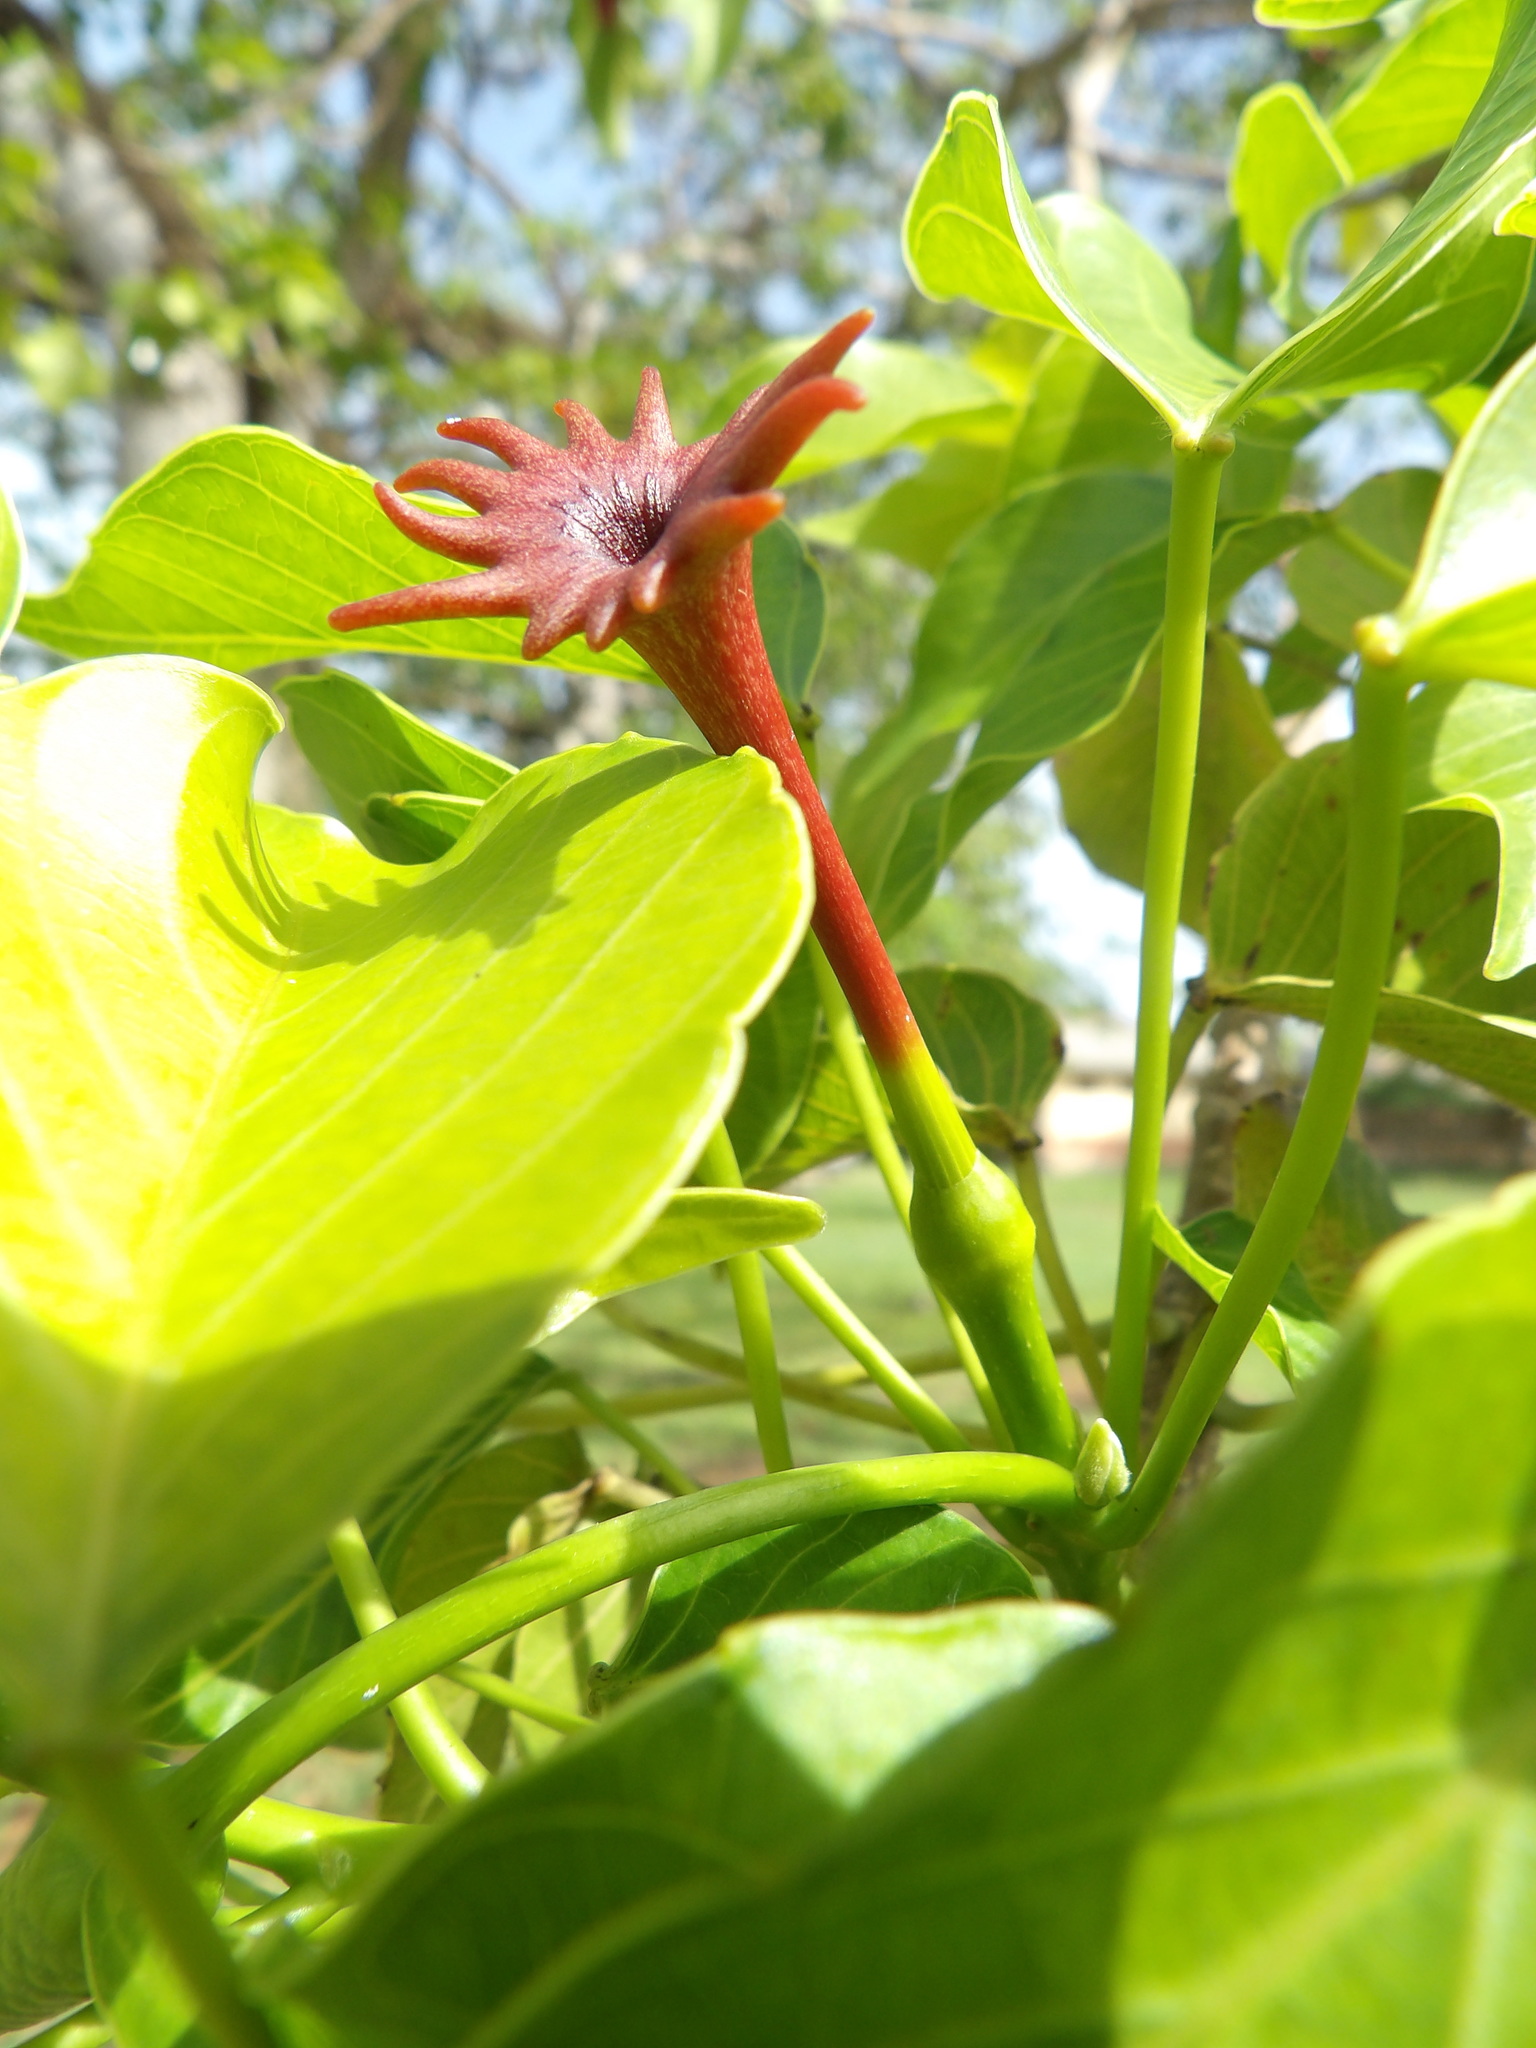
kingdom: Plantae
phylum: Tracheophyta
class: Magnoliopsida
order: Malpighiales
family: Euphorbiaceae
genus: Hura
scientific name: Hura crepitans
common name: Sandboxtree
